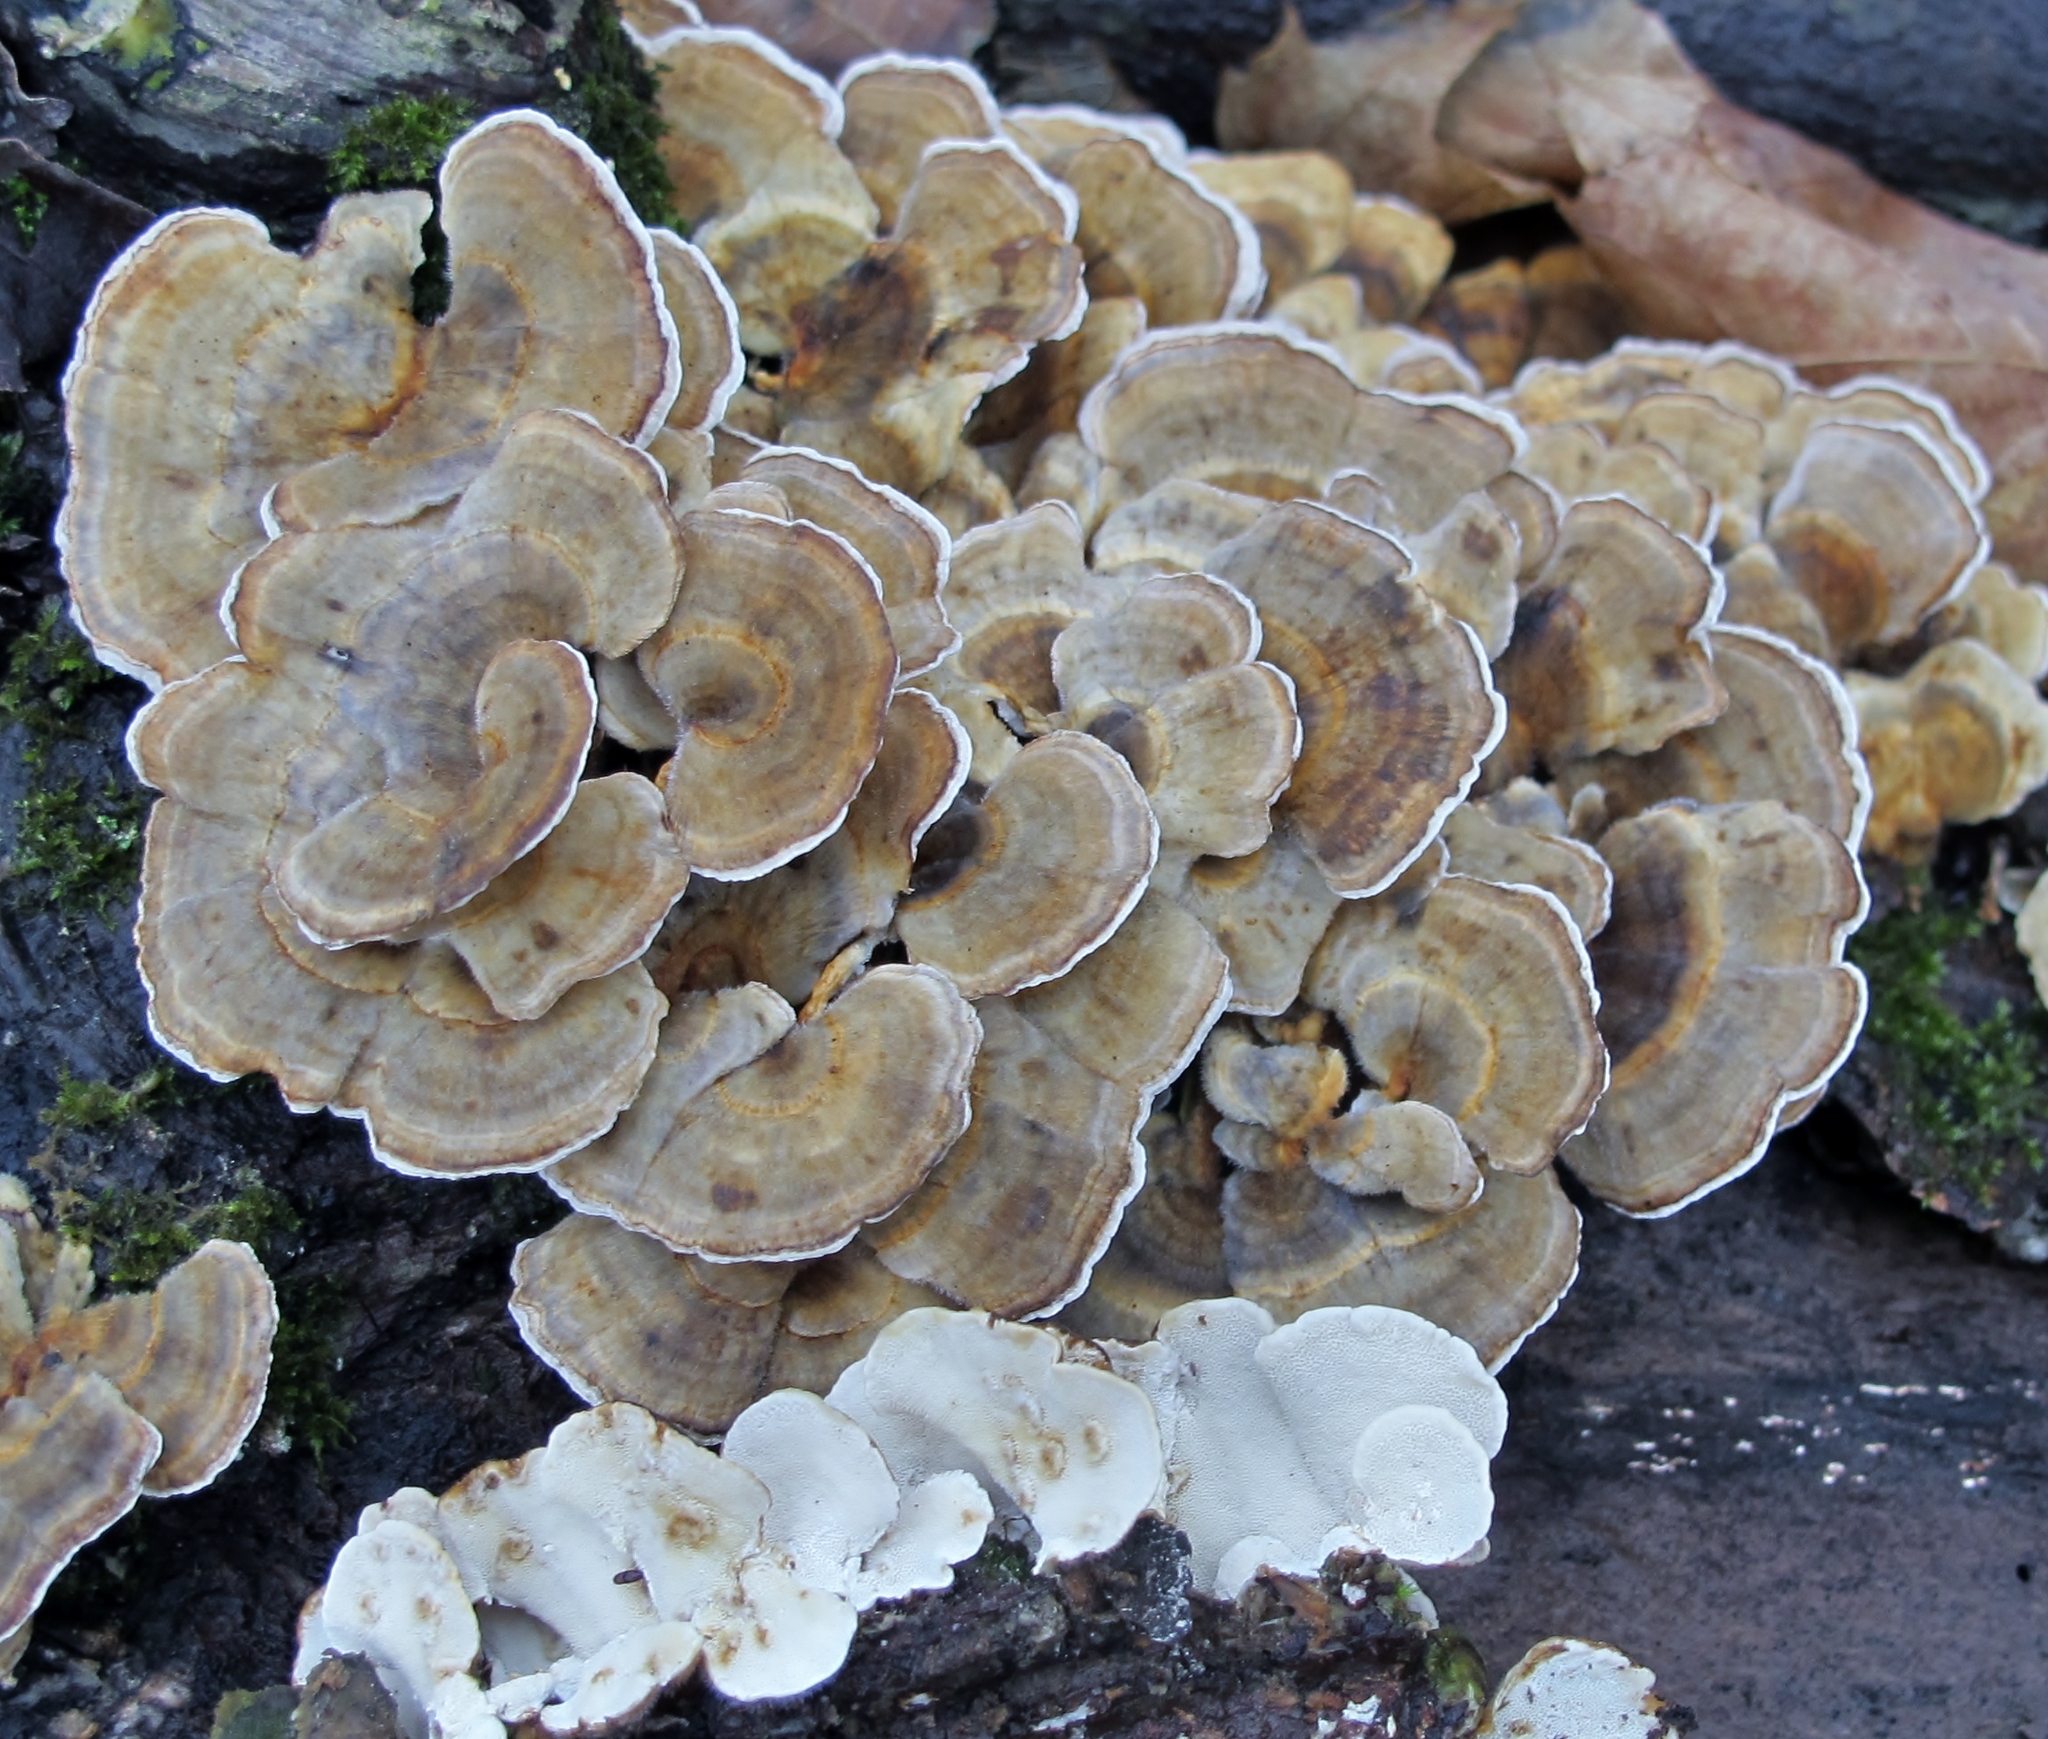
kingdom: Fungi
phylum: Basidiomycota
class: Agaricomycetes
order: Polyporales
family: Polyporaceae
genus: Trametes
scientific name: Trametes versicolor
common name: Turkeytail
